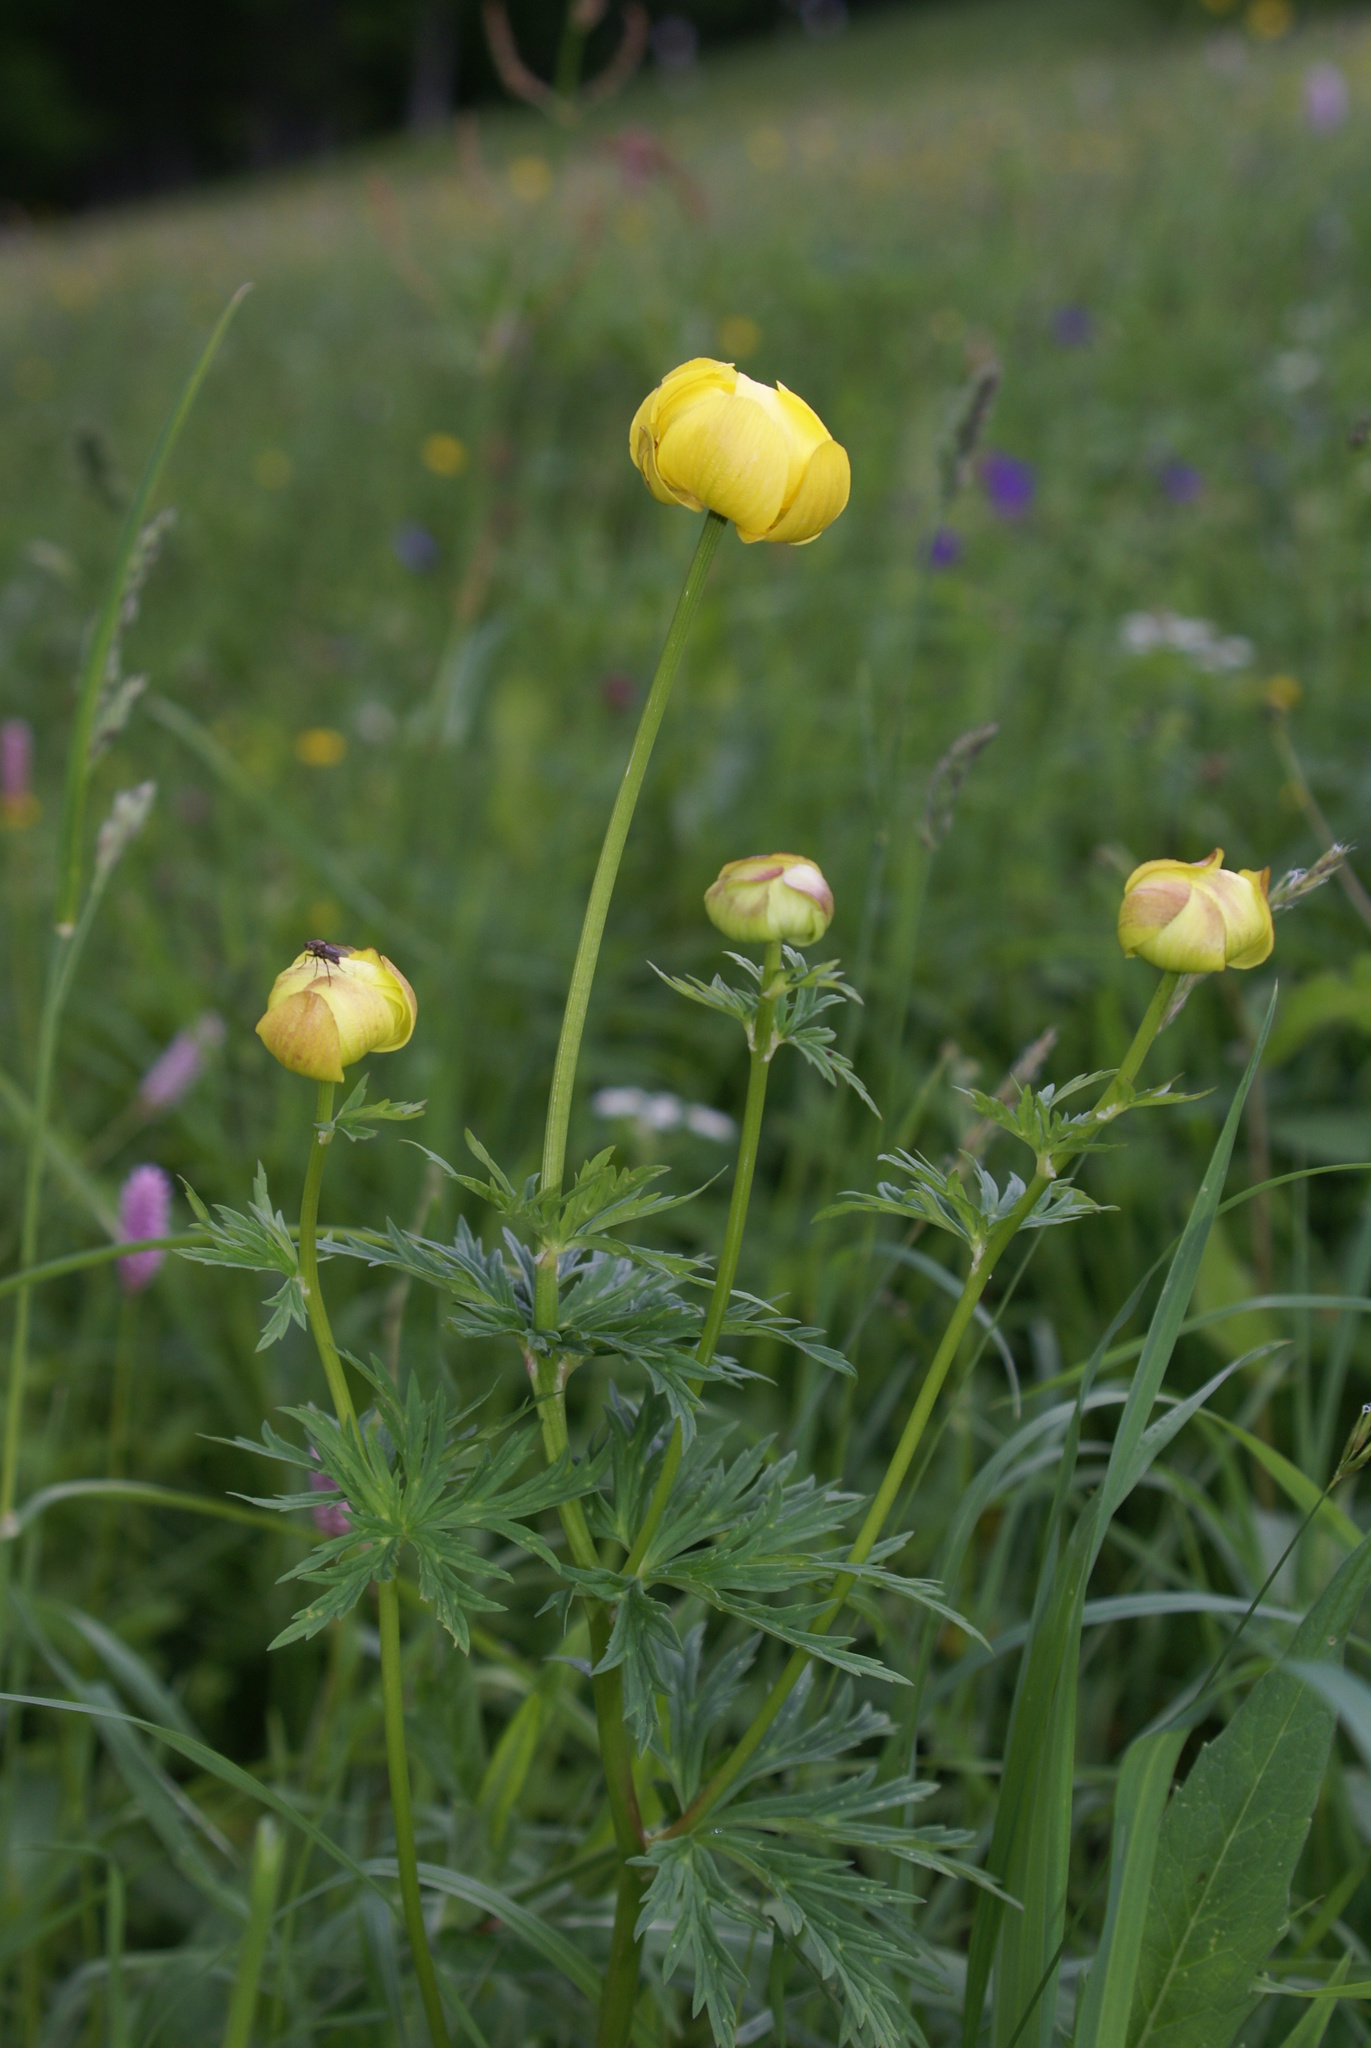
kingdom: Plantae
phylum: Tracheophyta
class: Magnoliopsida
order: Ranunculales
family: Ranunculaceae
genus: Trollius
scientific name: Trollius europaeus
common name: European globeflower
